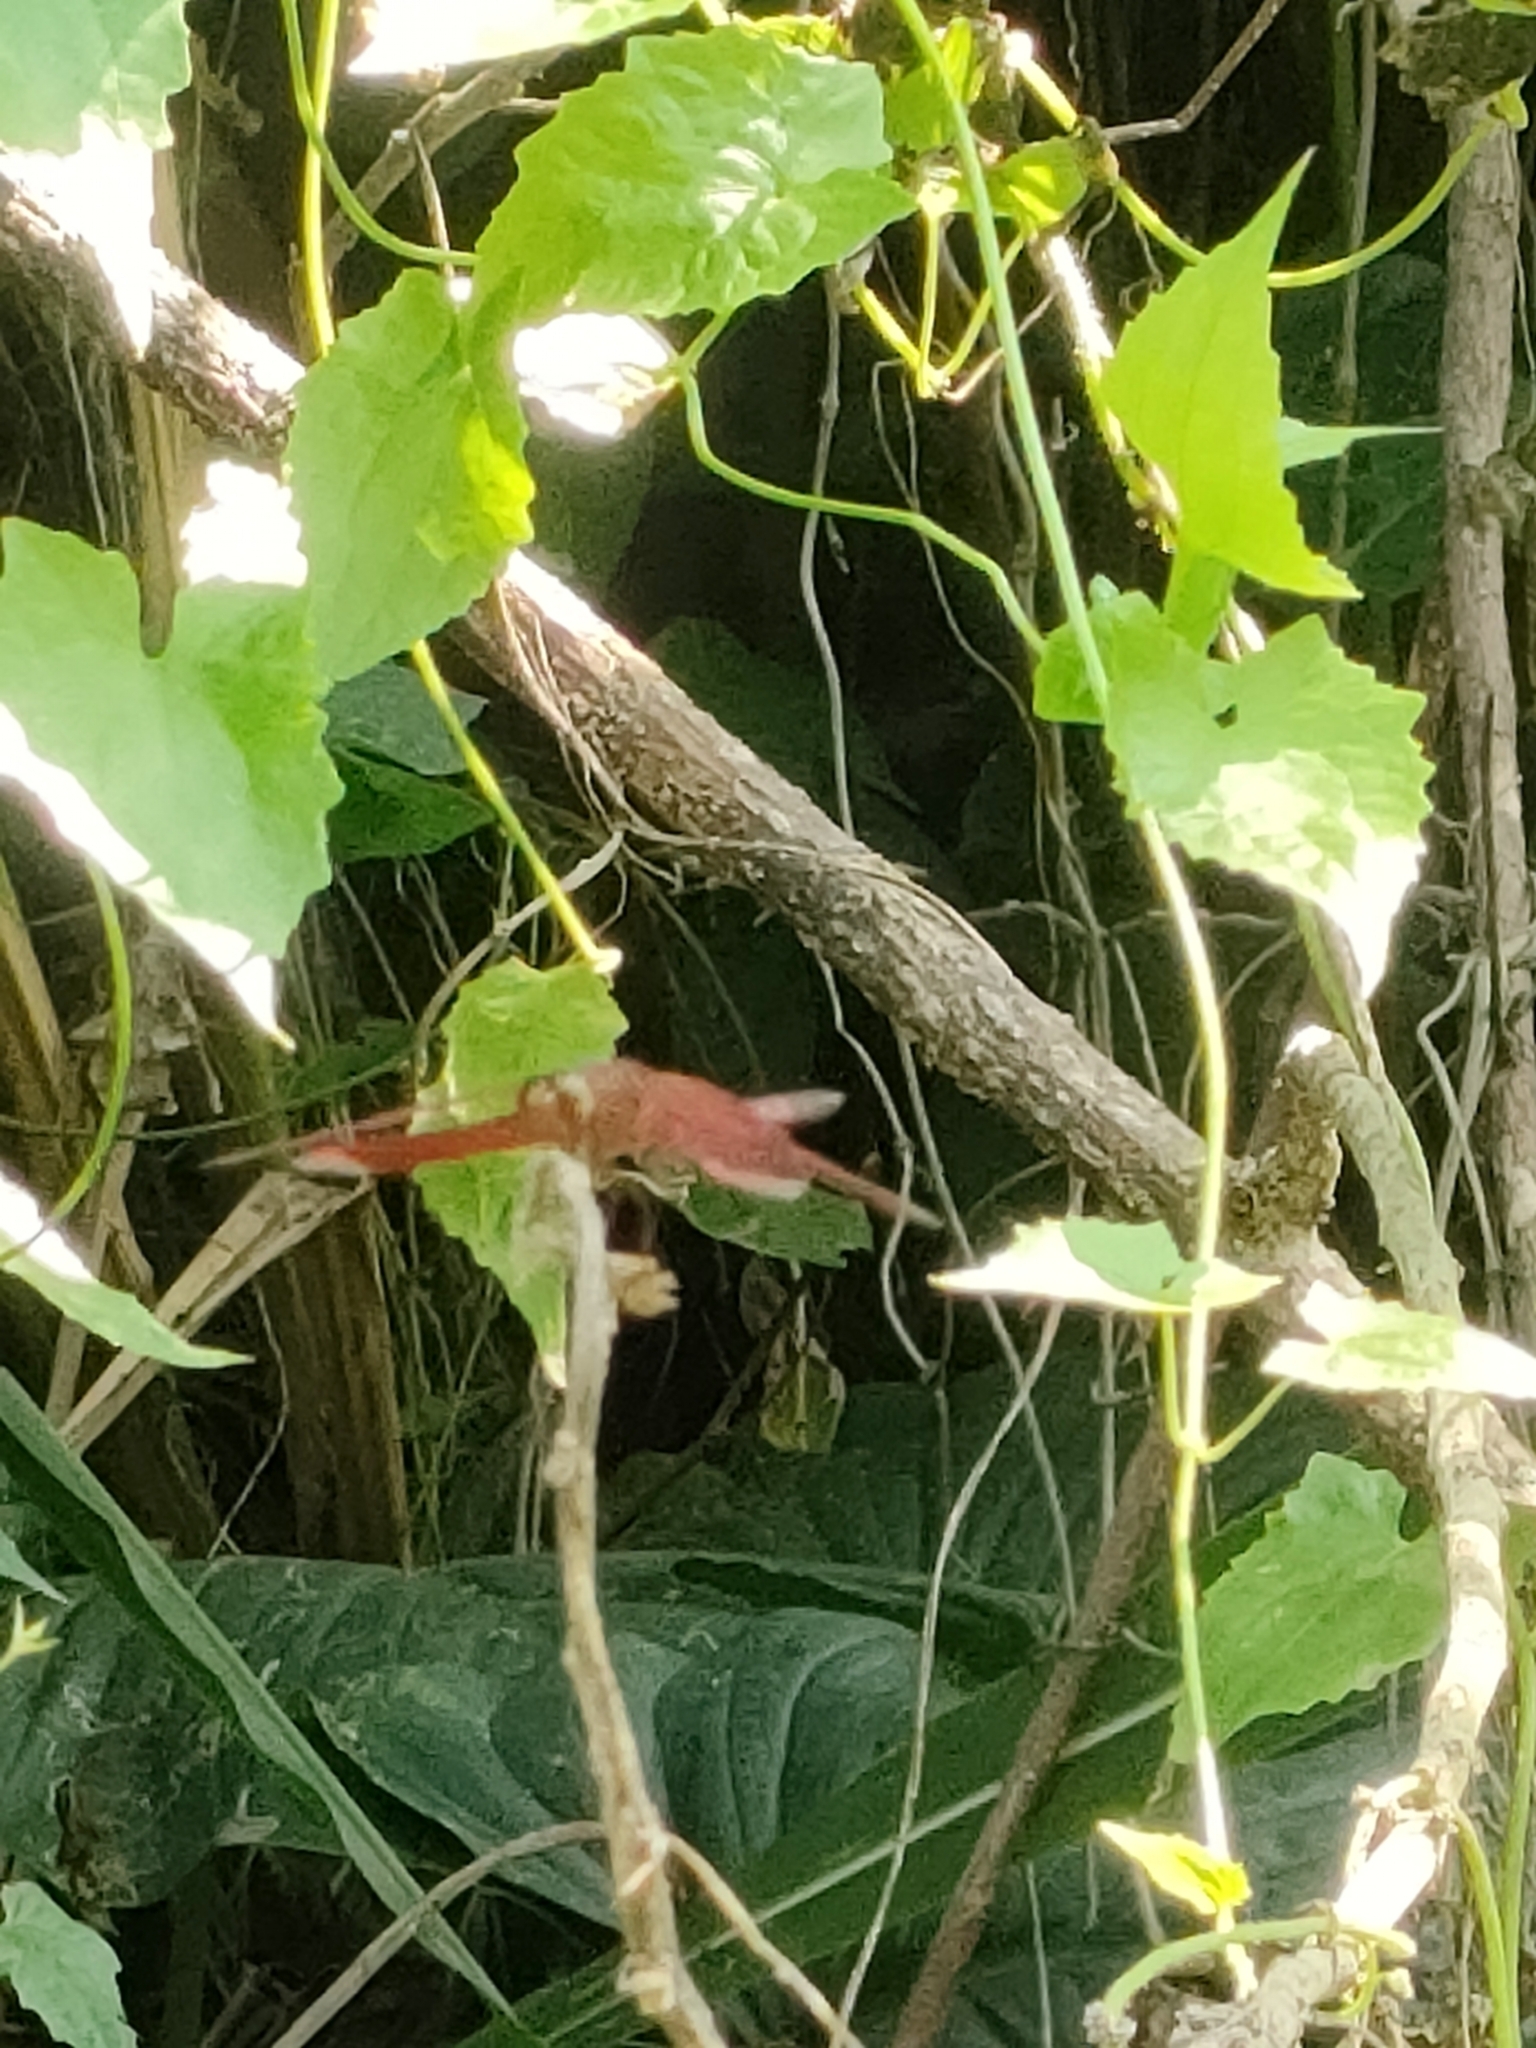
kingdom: Animalia
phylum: Arthropoda
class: Insecta
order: Odonata
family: Libellulidae
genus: Neurothemis
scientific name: Neurothemis terminata
